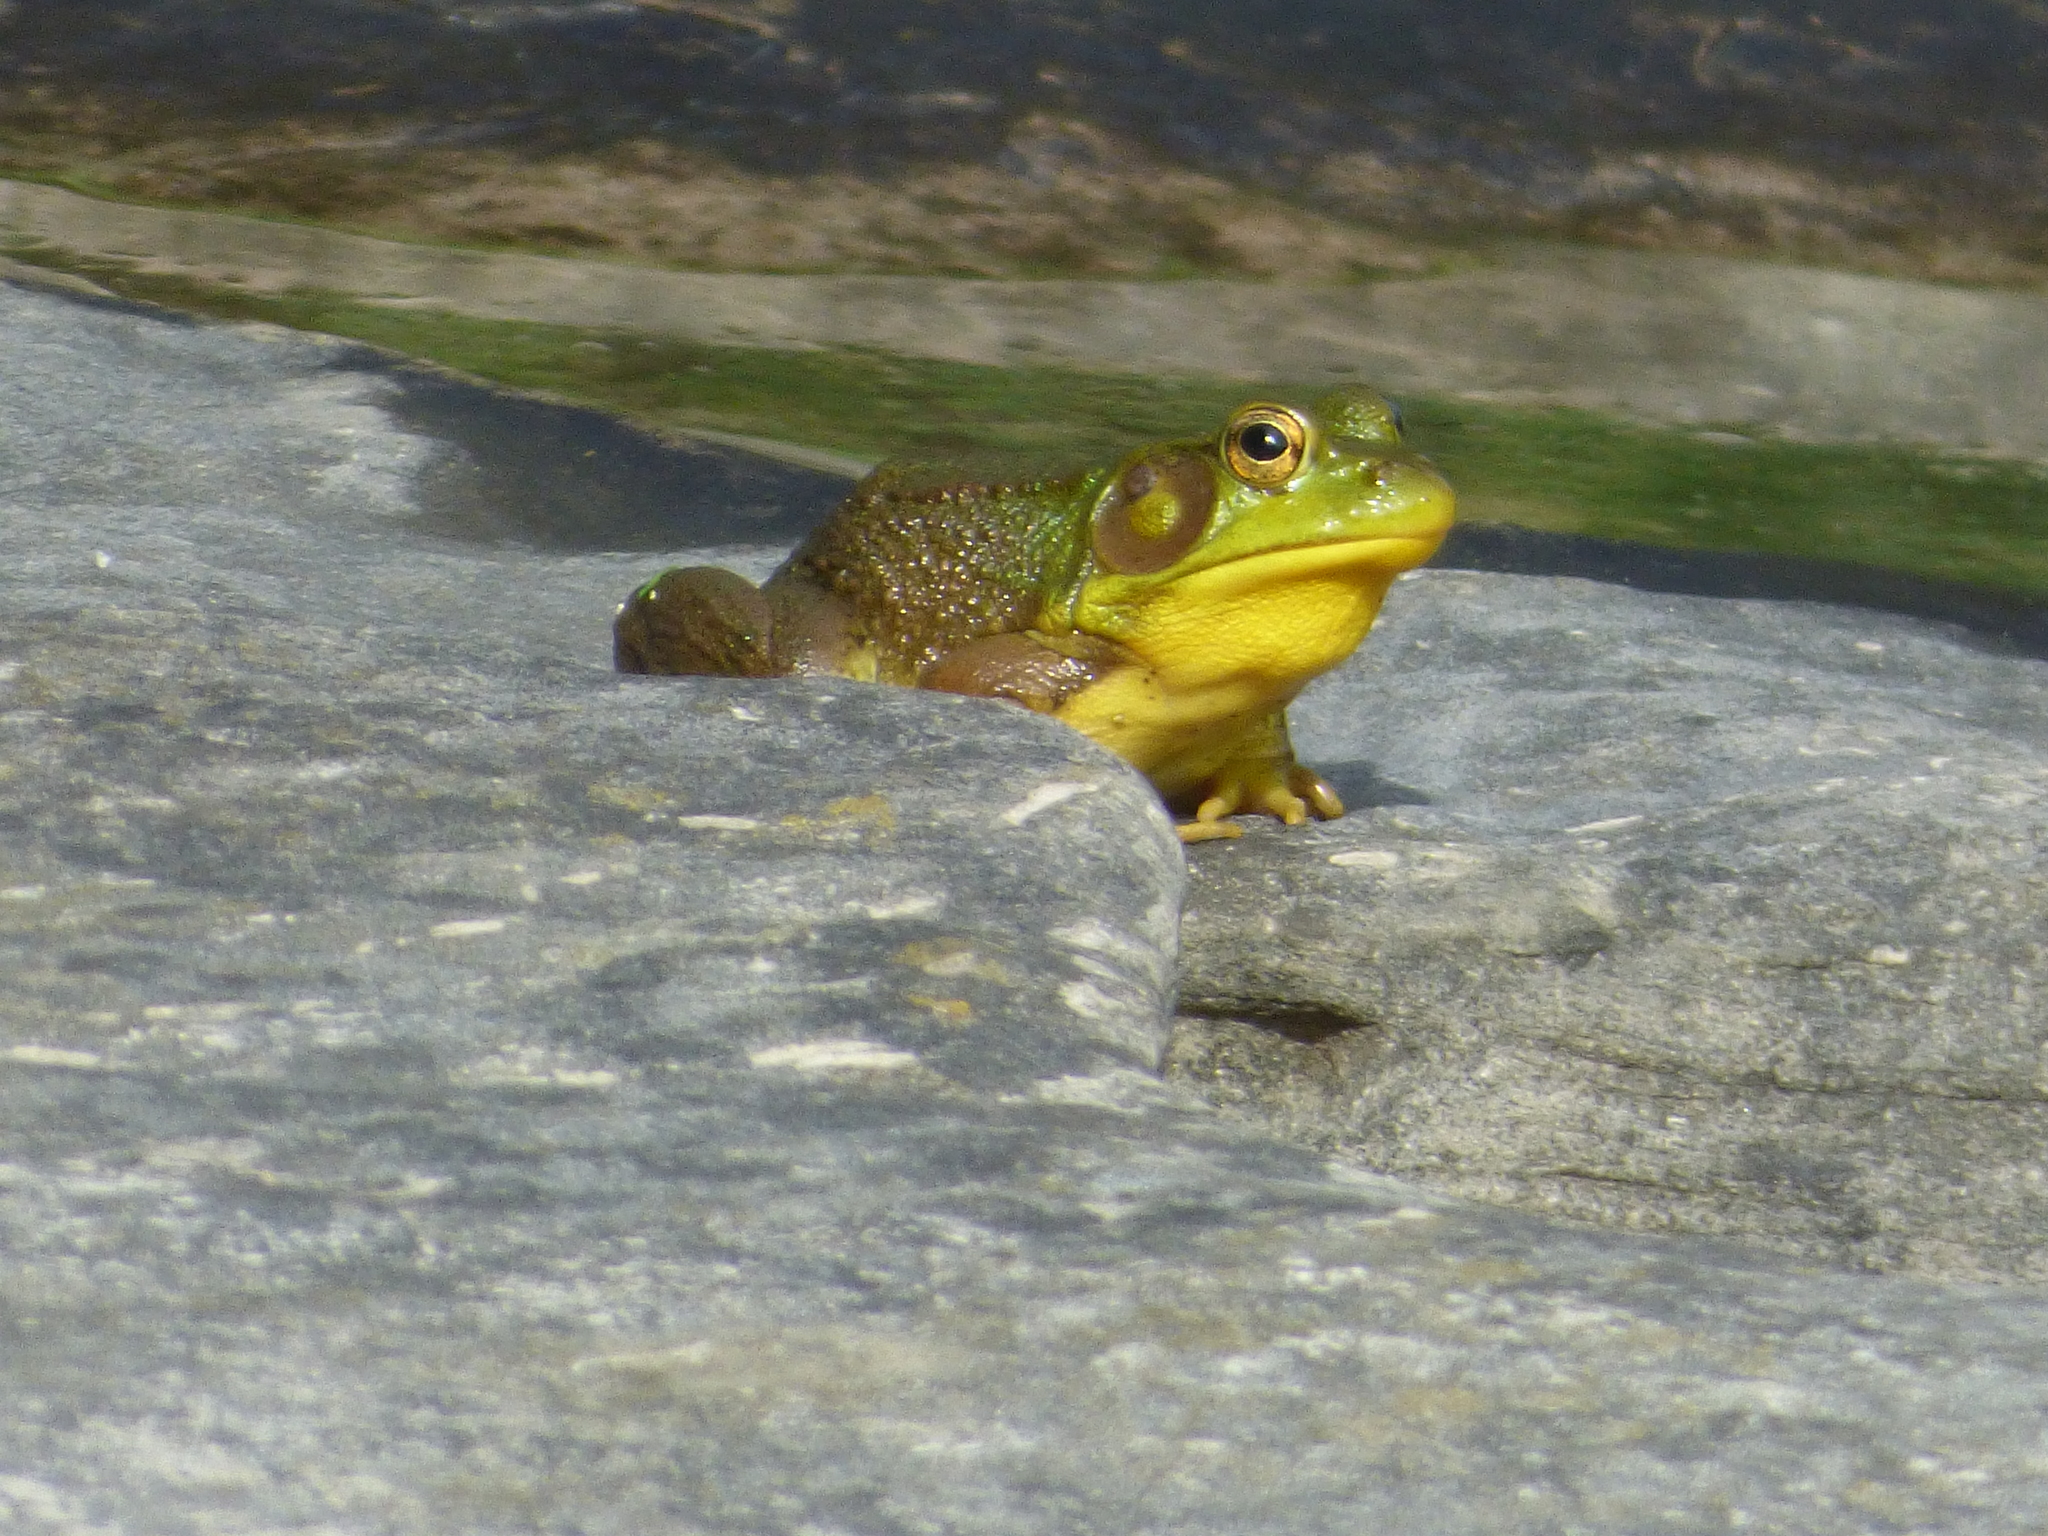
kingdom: Animalia
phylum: Chordata
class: Amphibia
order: Anura
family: Ranidae
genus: Lithobates
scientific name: Lithobates clamitans
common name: Green frog
